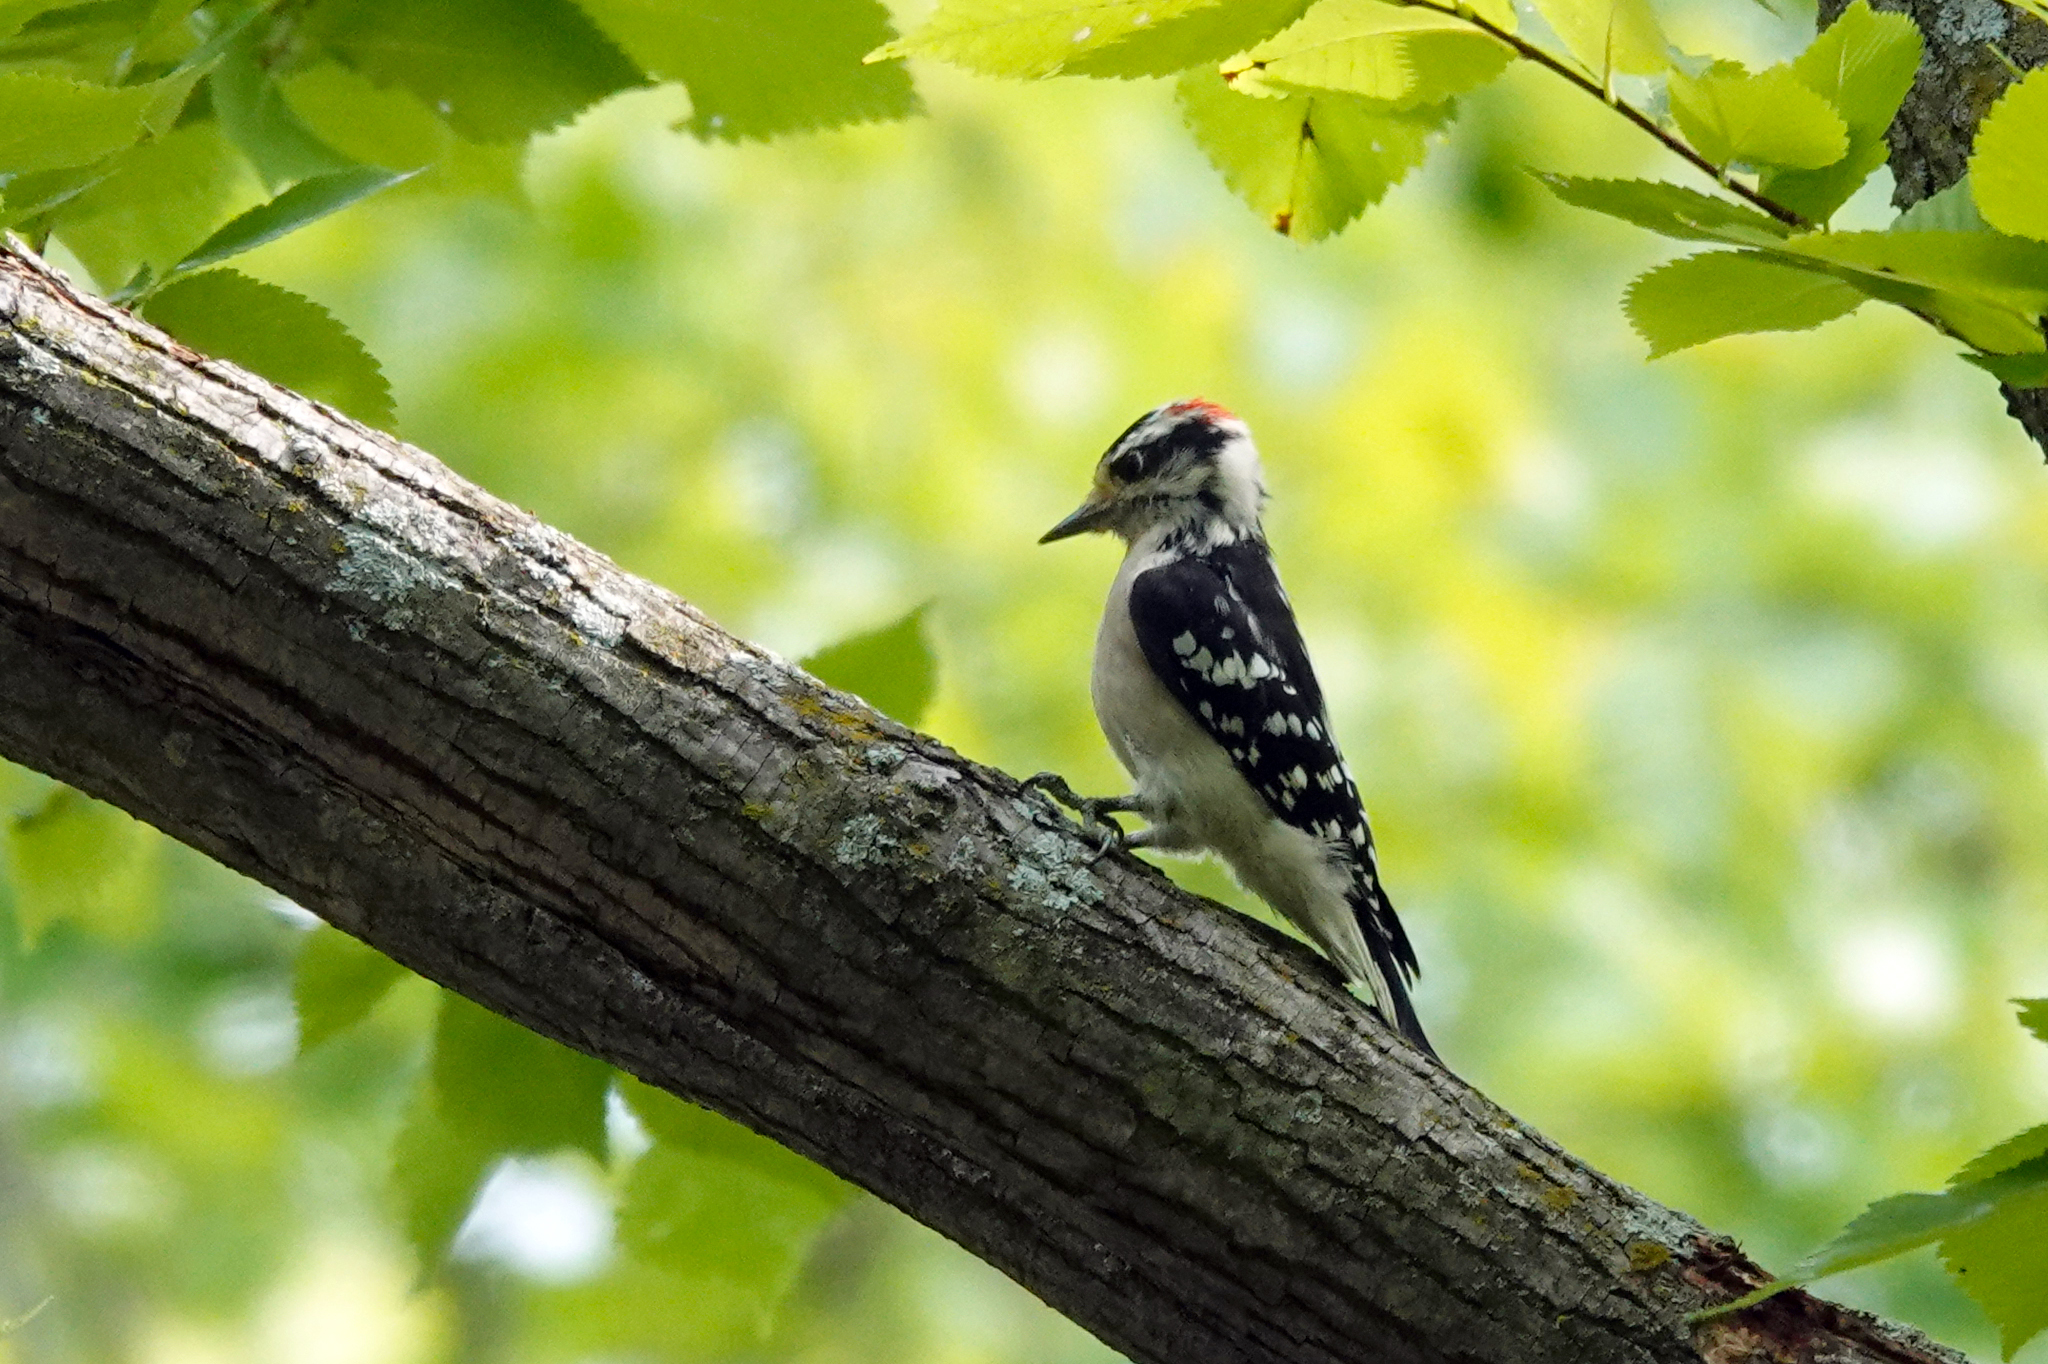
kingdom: Animalia
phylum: Chordata
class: Aves
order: Piciformes
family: Picidae
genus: Dryobates
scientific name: Dryobates pubescens
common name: Downy woodpecker
